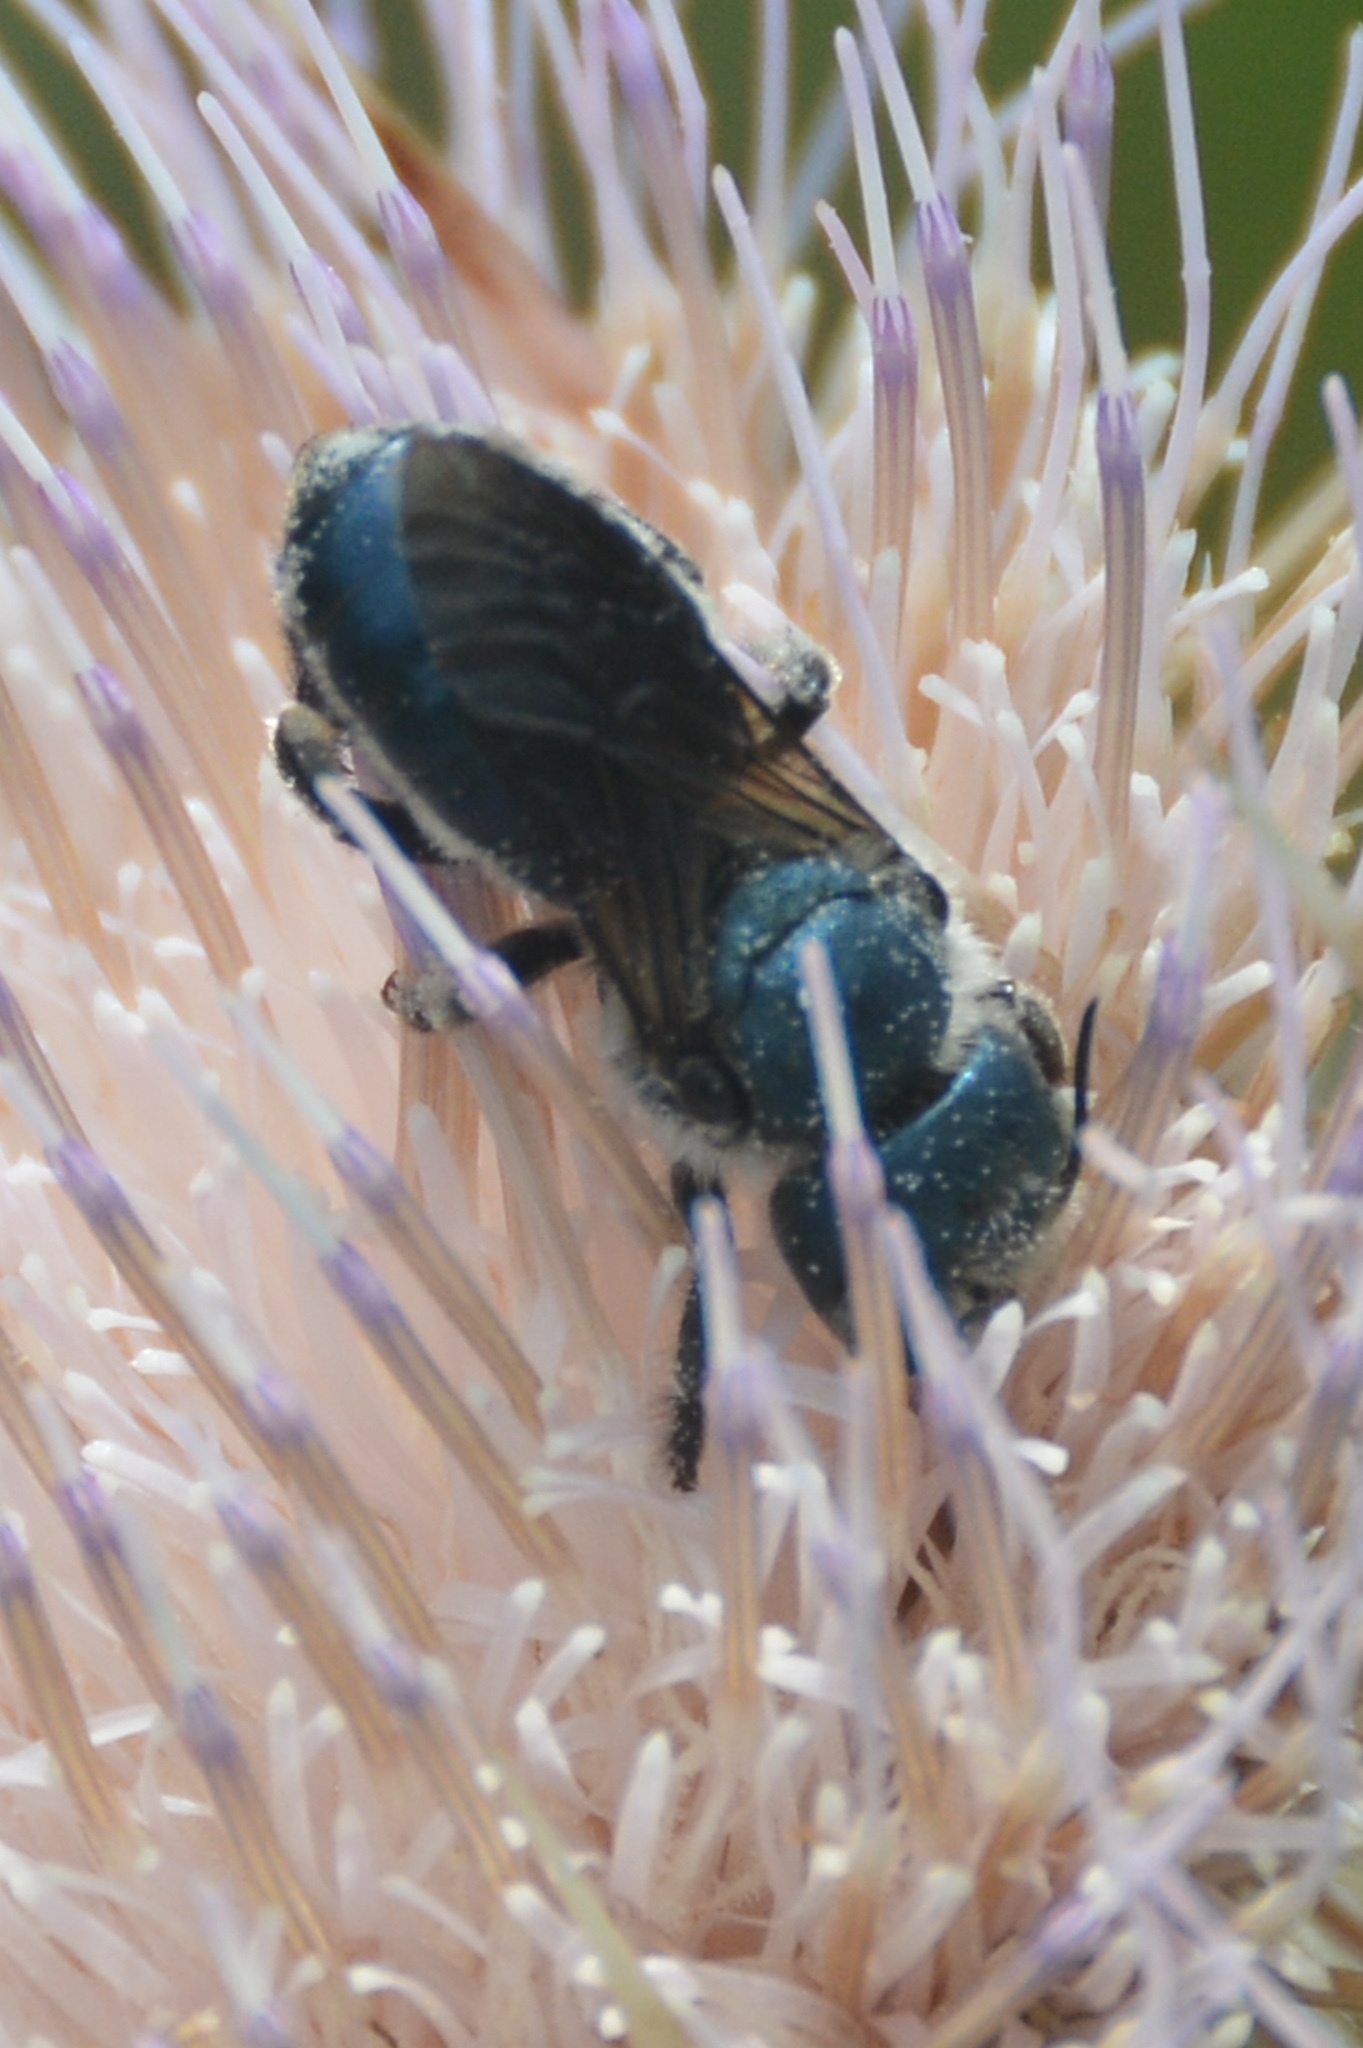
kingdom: Animalia
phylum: Arthropoda
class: Insecta
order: Hymenoptera
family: Megachilidae
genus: Osmia
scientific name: Osmia chalybea
